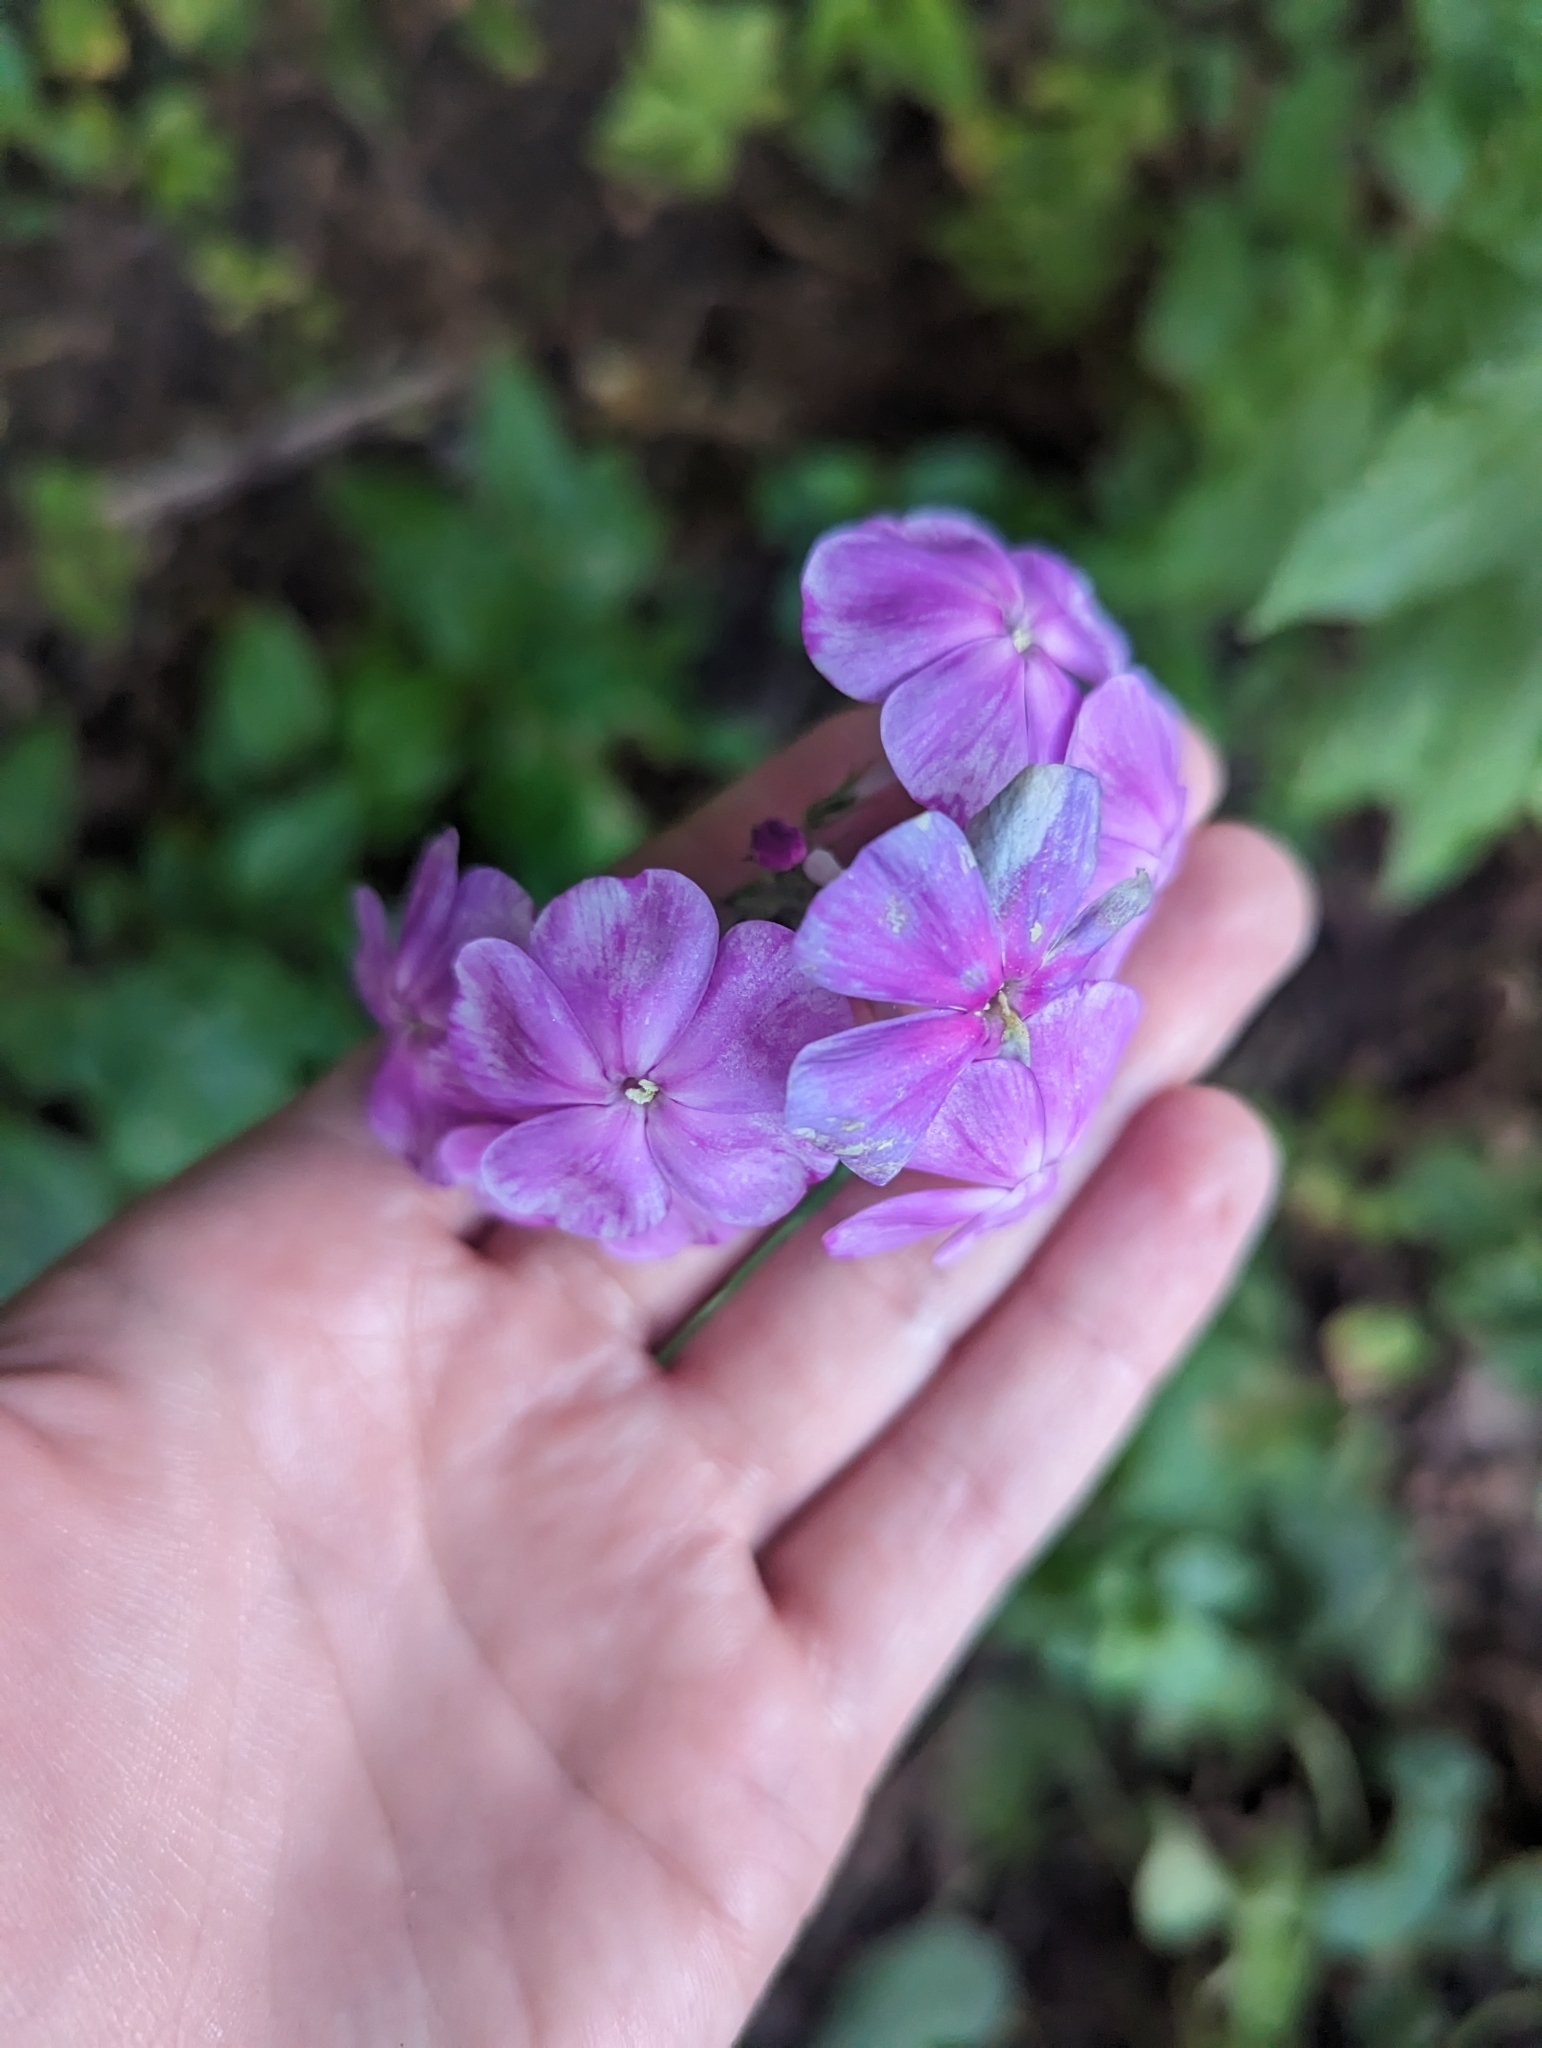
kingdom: Plantae
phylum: Tracheophyta
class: Magnoliopsida
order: Ericales
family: Polemoniaceae
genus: Phlox
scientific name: Phlox paniculata
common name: Fall phlox
